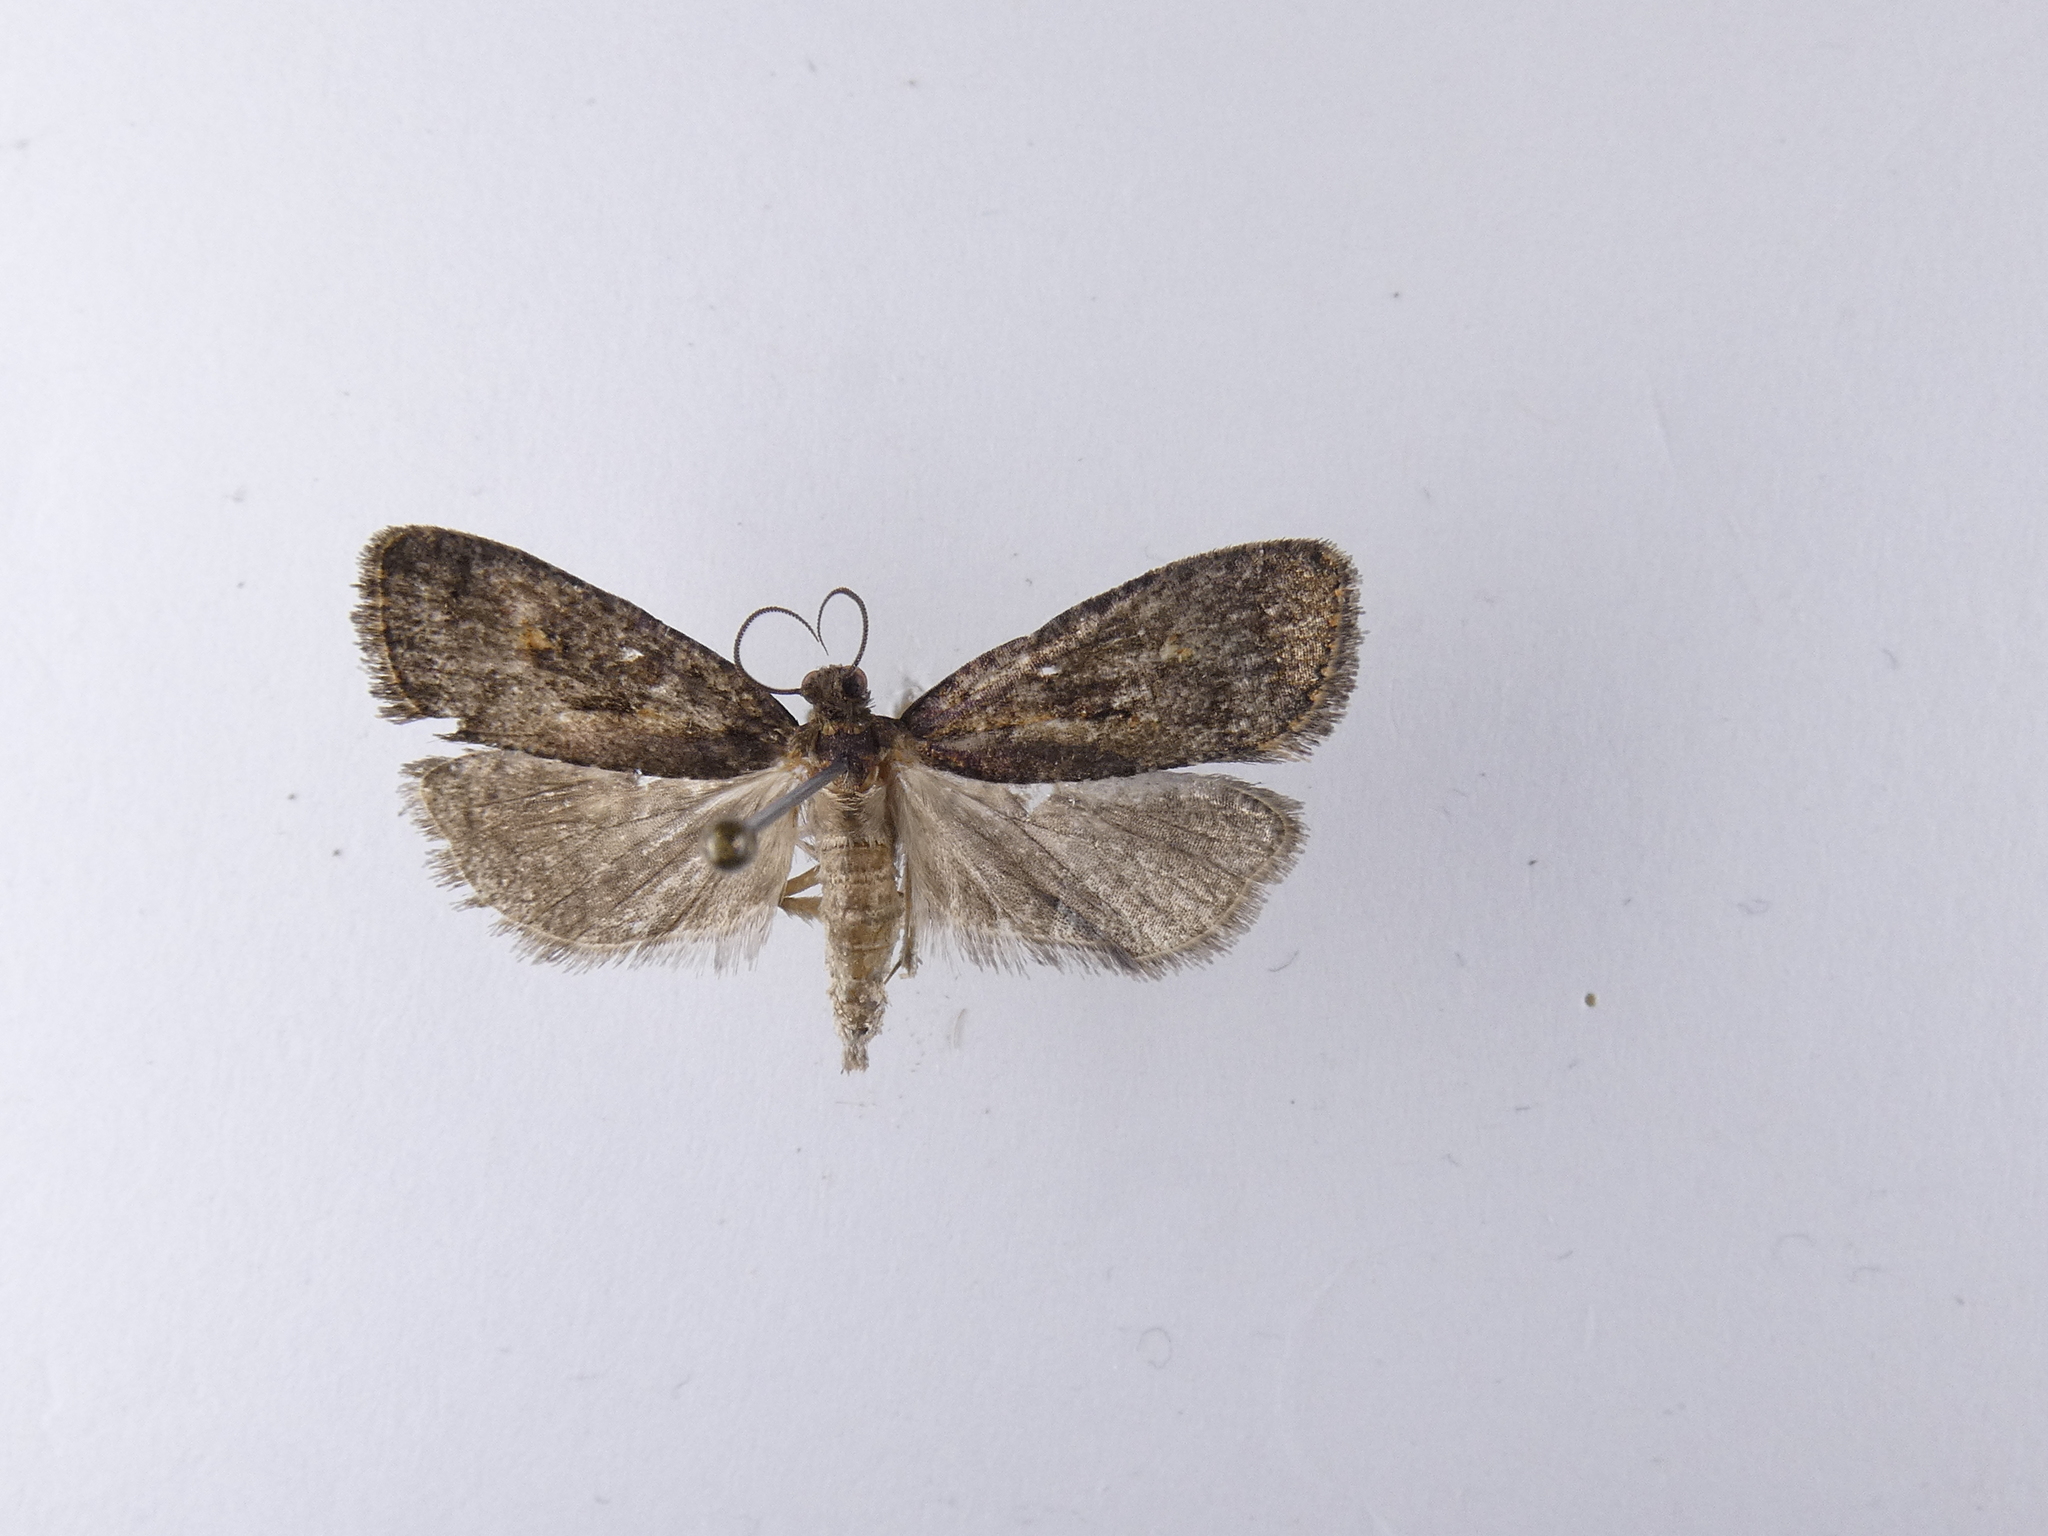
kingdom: Animalia
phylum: Arthropoda
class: Insecta
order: Lepidoptera
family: Tortricidae
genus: Cryptaspasma
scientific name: Cryptaspasma querula
